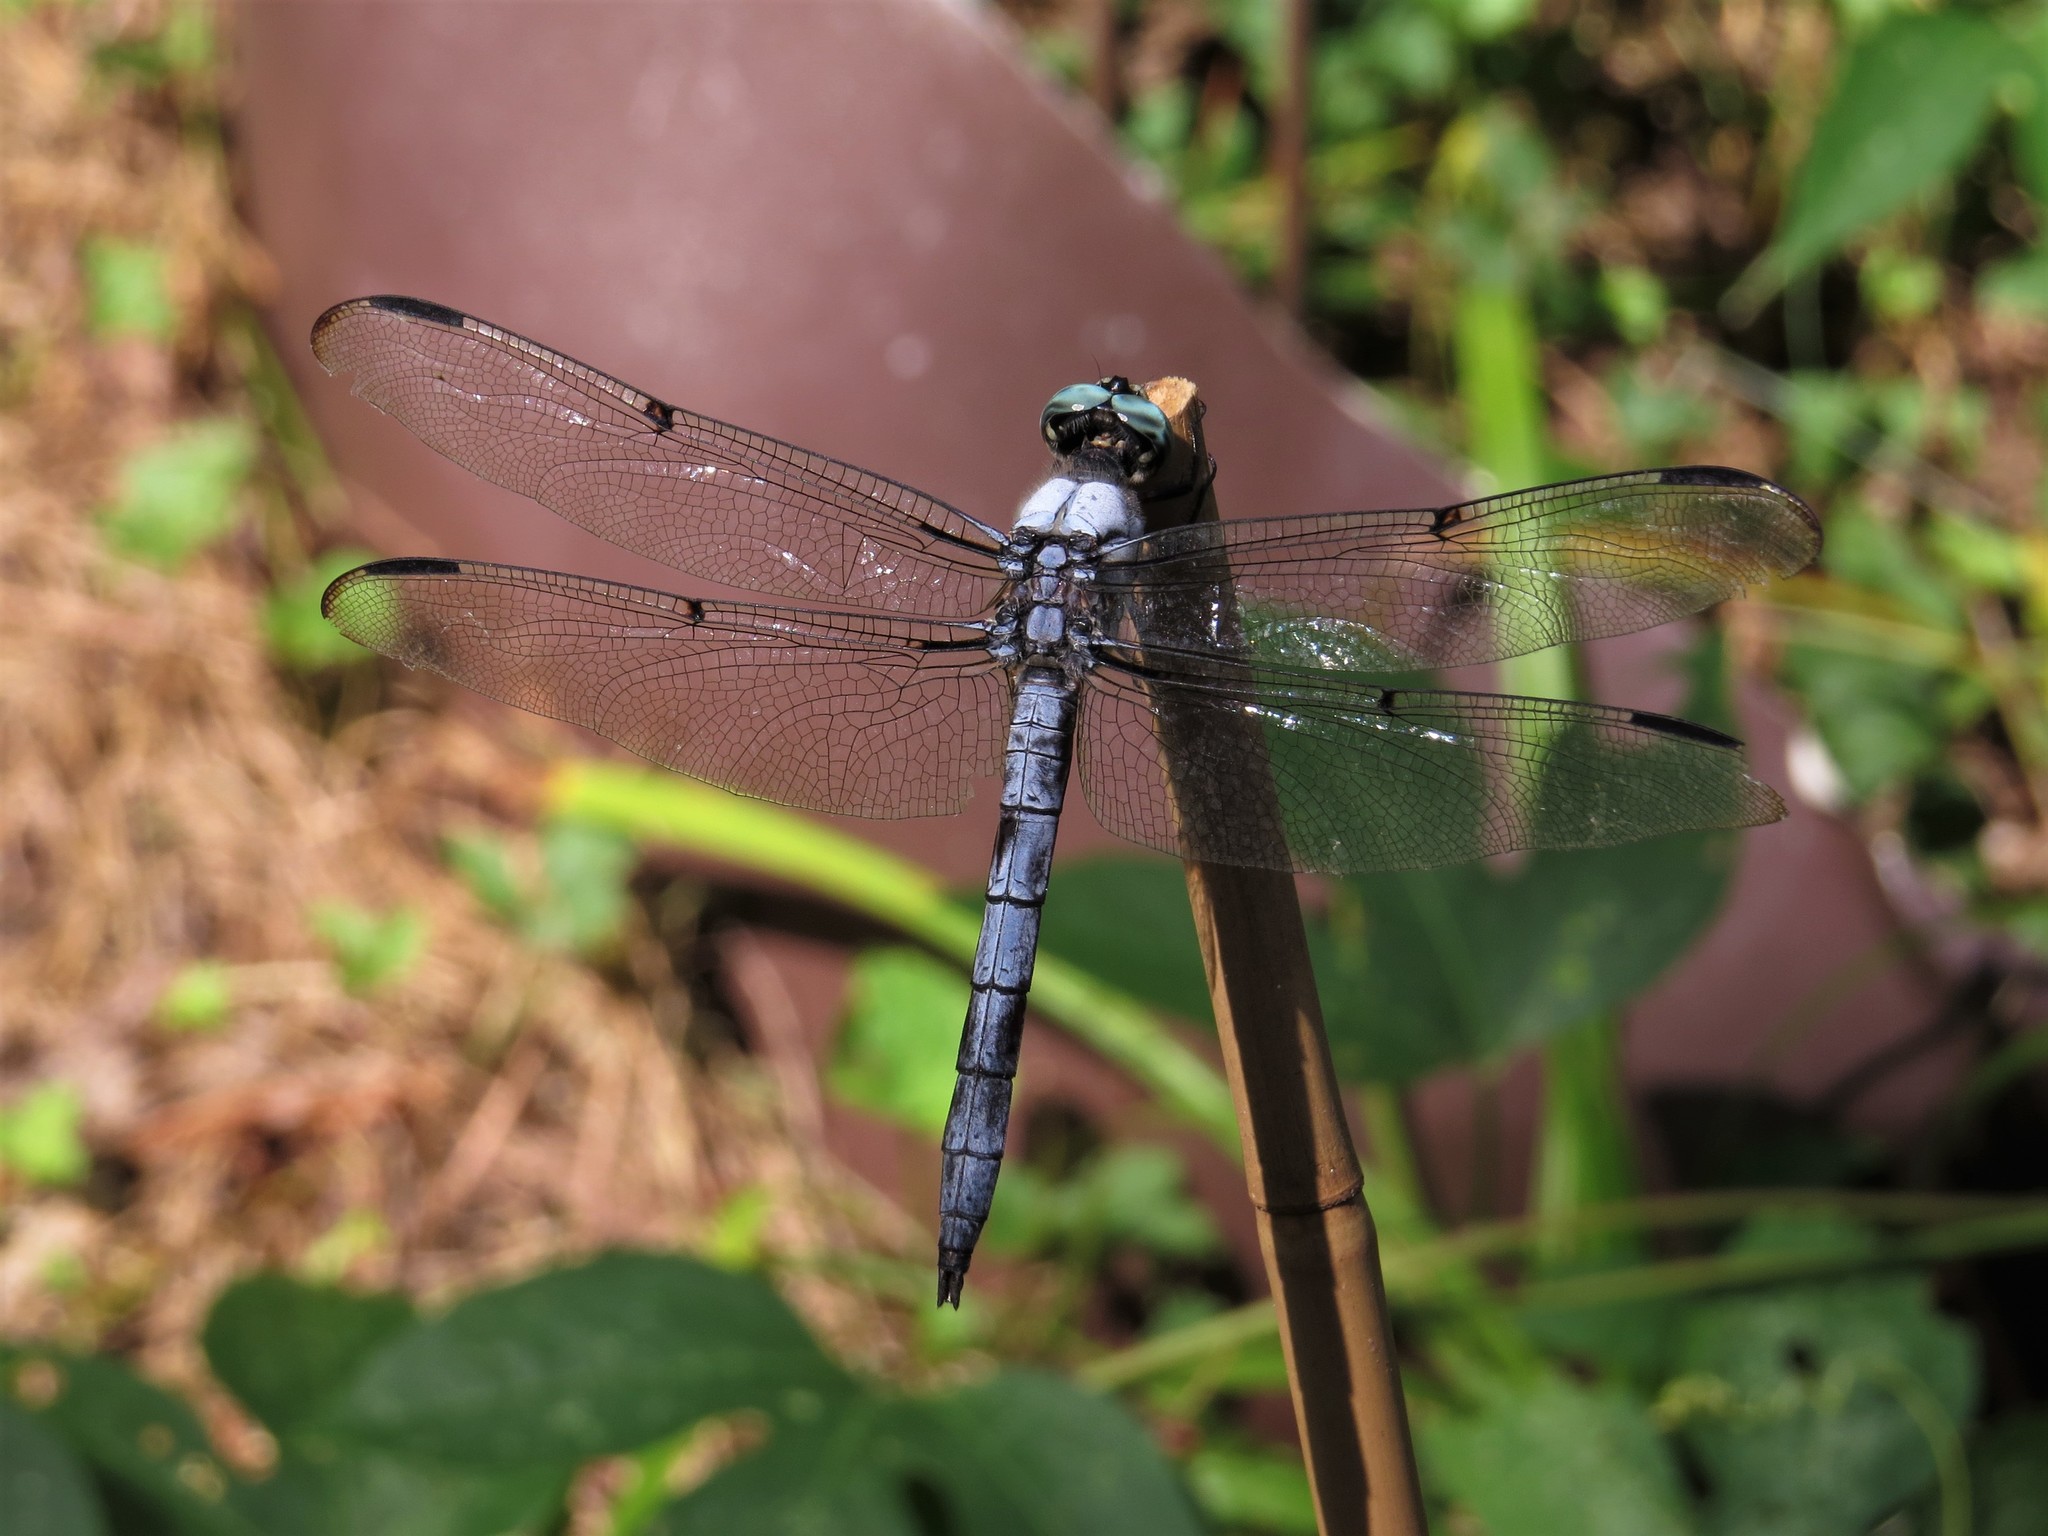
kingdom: Animalia
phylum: Arthropoda
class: Insecta
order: Odonata
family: Libellulidae
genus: Libellula
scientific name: Libellula vibrans
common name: Great blue skimmer
